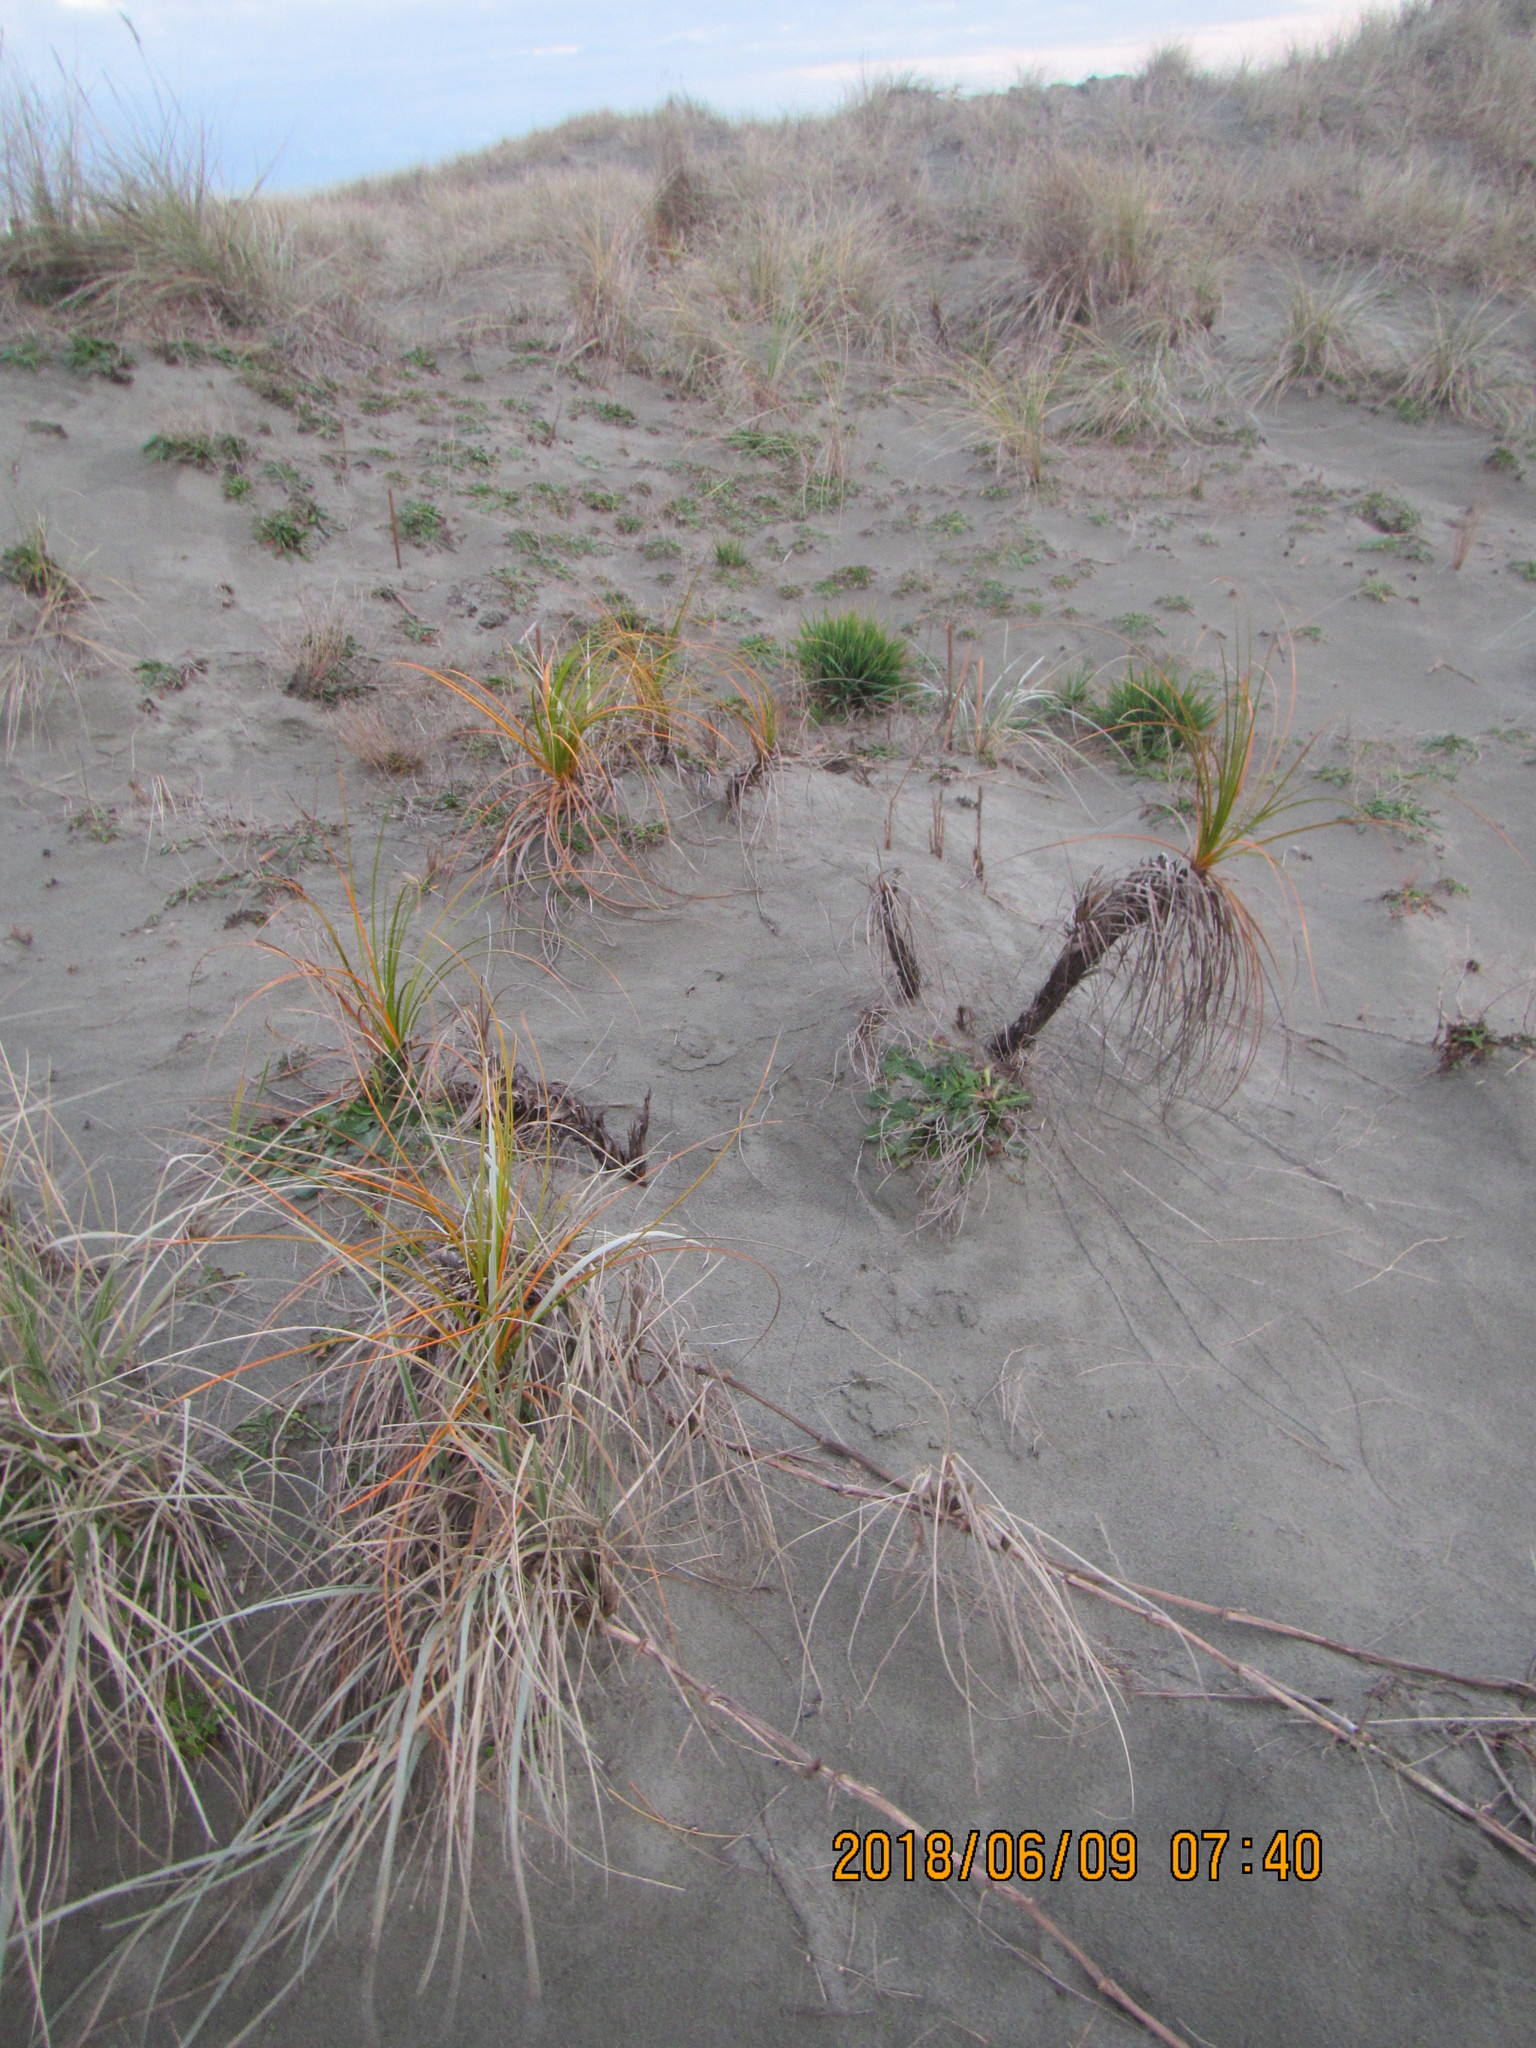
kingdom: Plantae
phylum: Tracheophyta
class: Liliopsida
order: Poales
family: Cyperaceae
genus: Ficinia
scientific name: Ficinia spiralis
